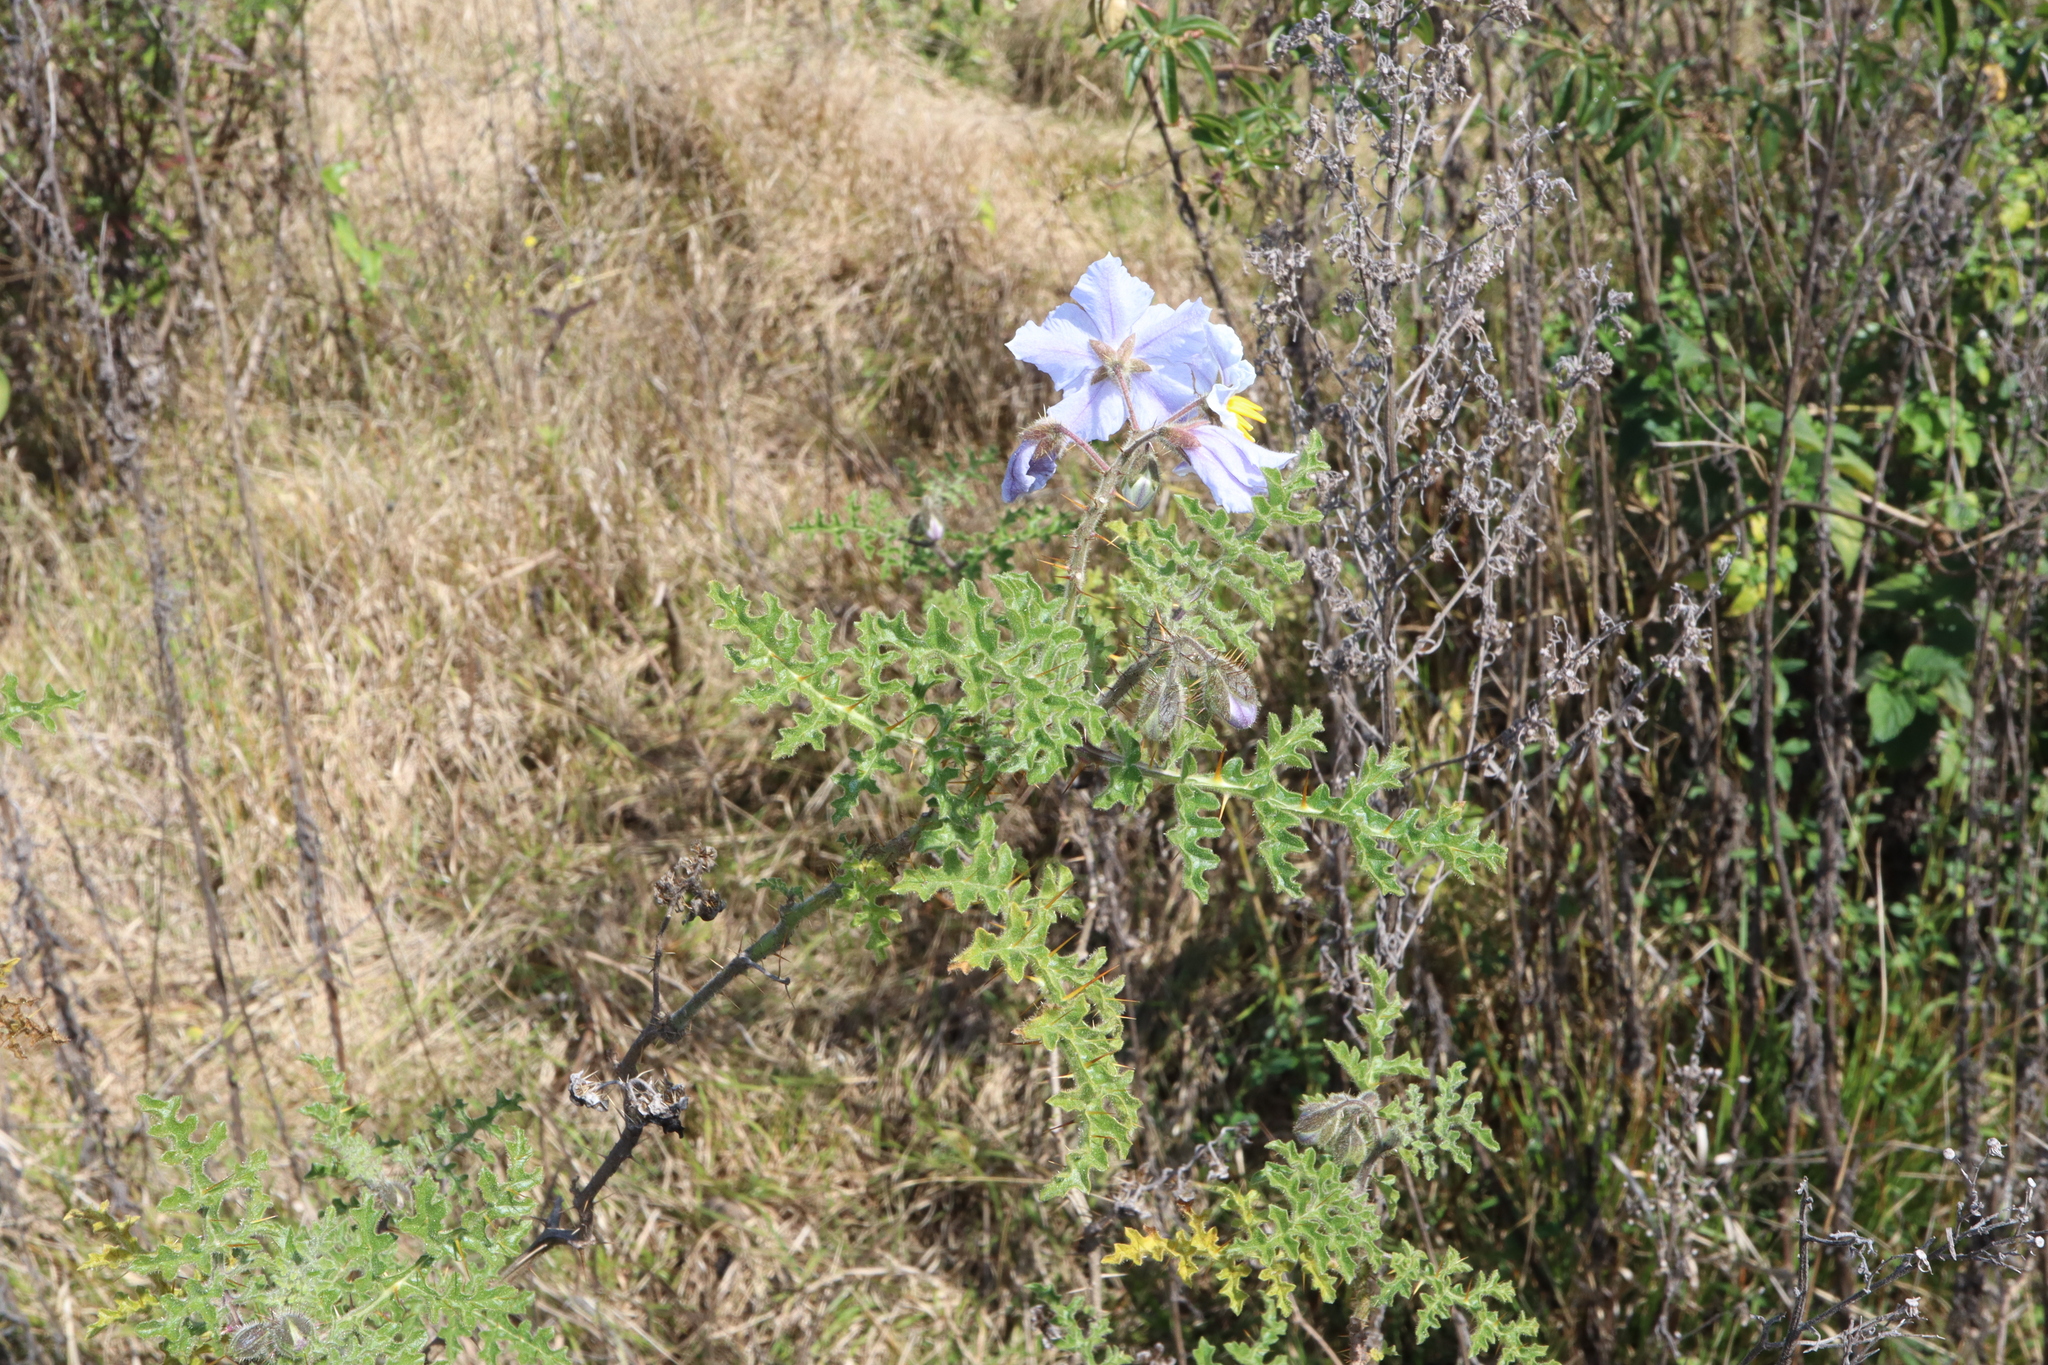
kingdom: Plantae
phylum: Tracheophyta
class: Magnoliopsida
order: Solanales
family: Solanaceae
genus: Solanum
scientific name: Solanum sisymbriifolium
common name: Red buffalo-bur
